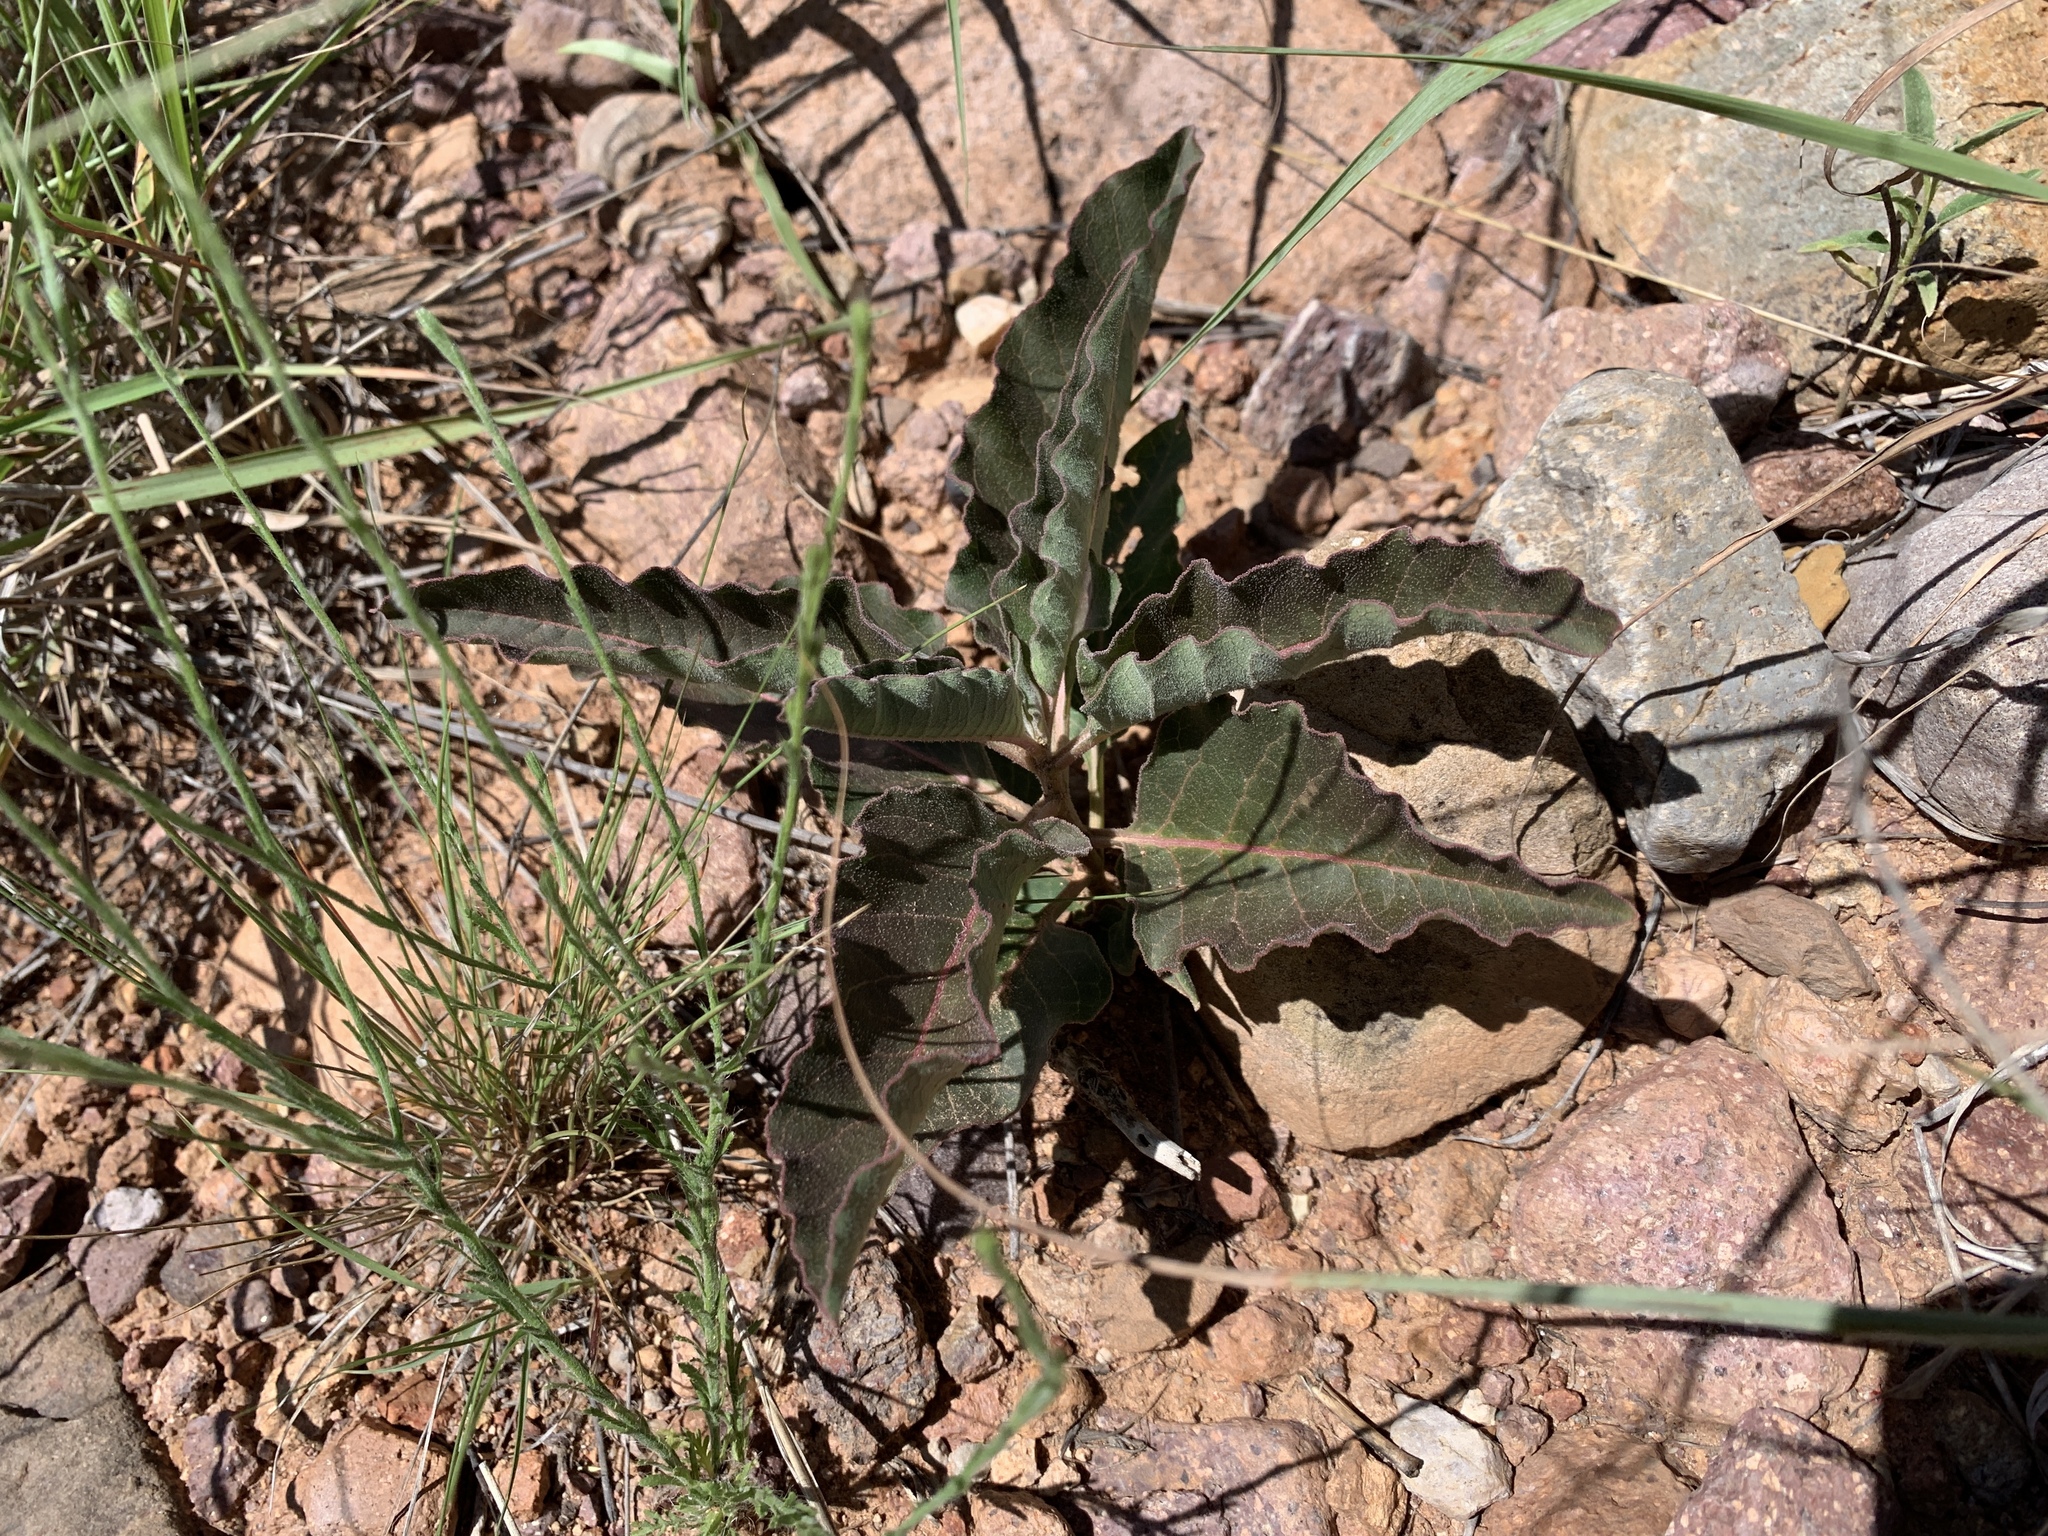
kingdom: Plantae
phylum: Tracheophyta
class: Magnoliopsida
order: Gentianales
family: Apocynaceae
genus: Asclepias
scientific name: Asclepias nyctaginifolia
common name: Mojave milkweed
